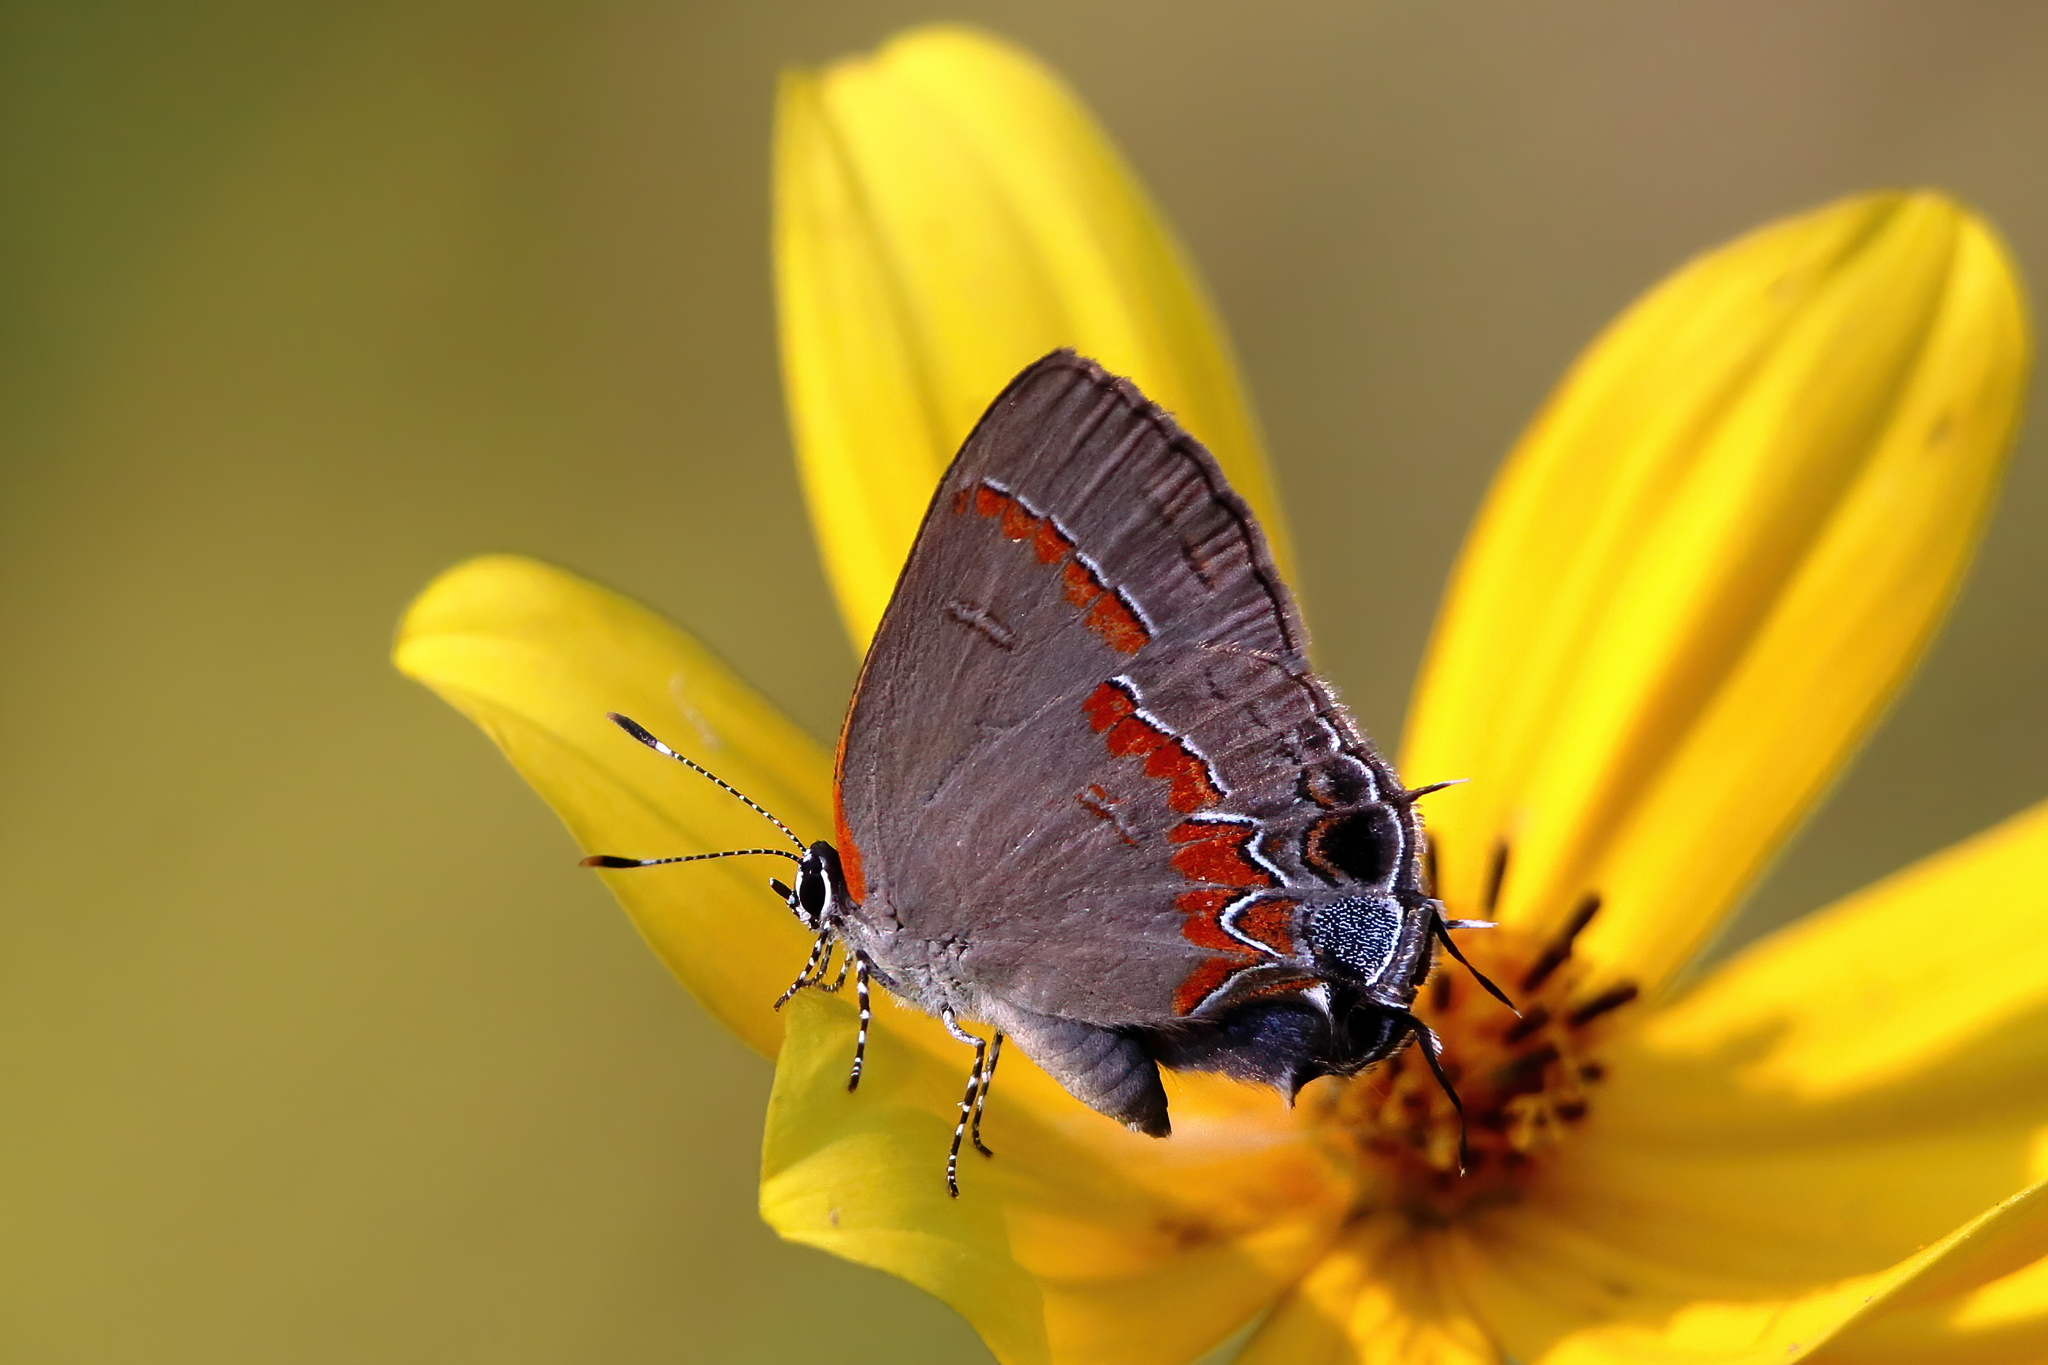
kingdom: Animalia
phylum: Arthropoda
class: Insecta
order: Lepidoptera
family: Lycaenidae
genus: Calycopis
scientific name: Calycopis cecrops
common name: Red-banded hairstreak
